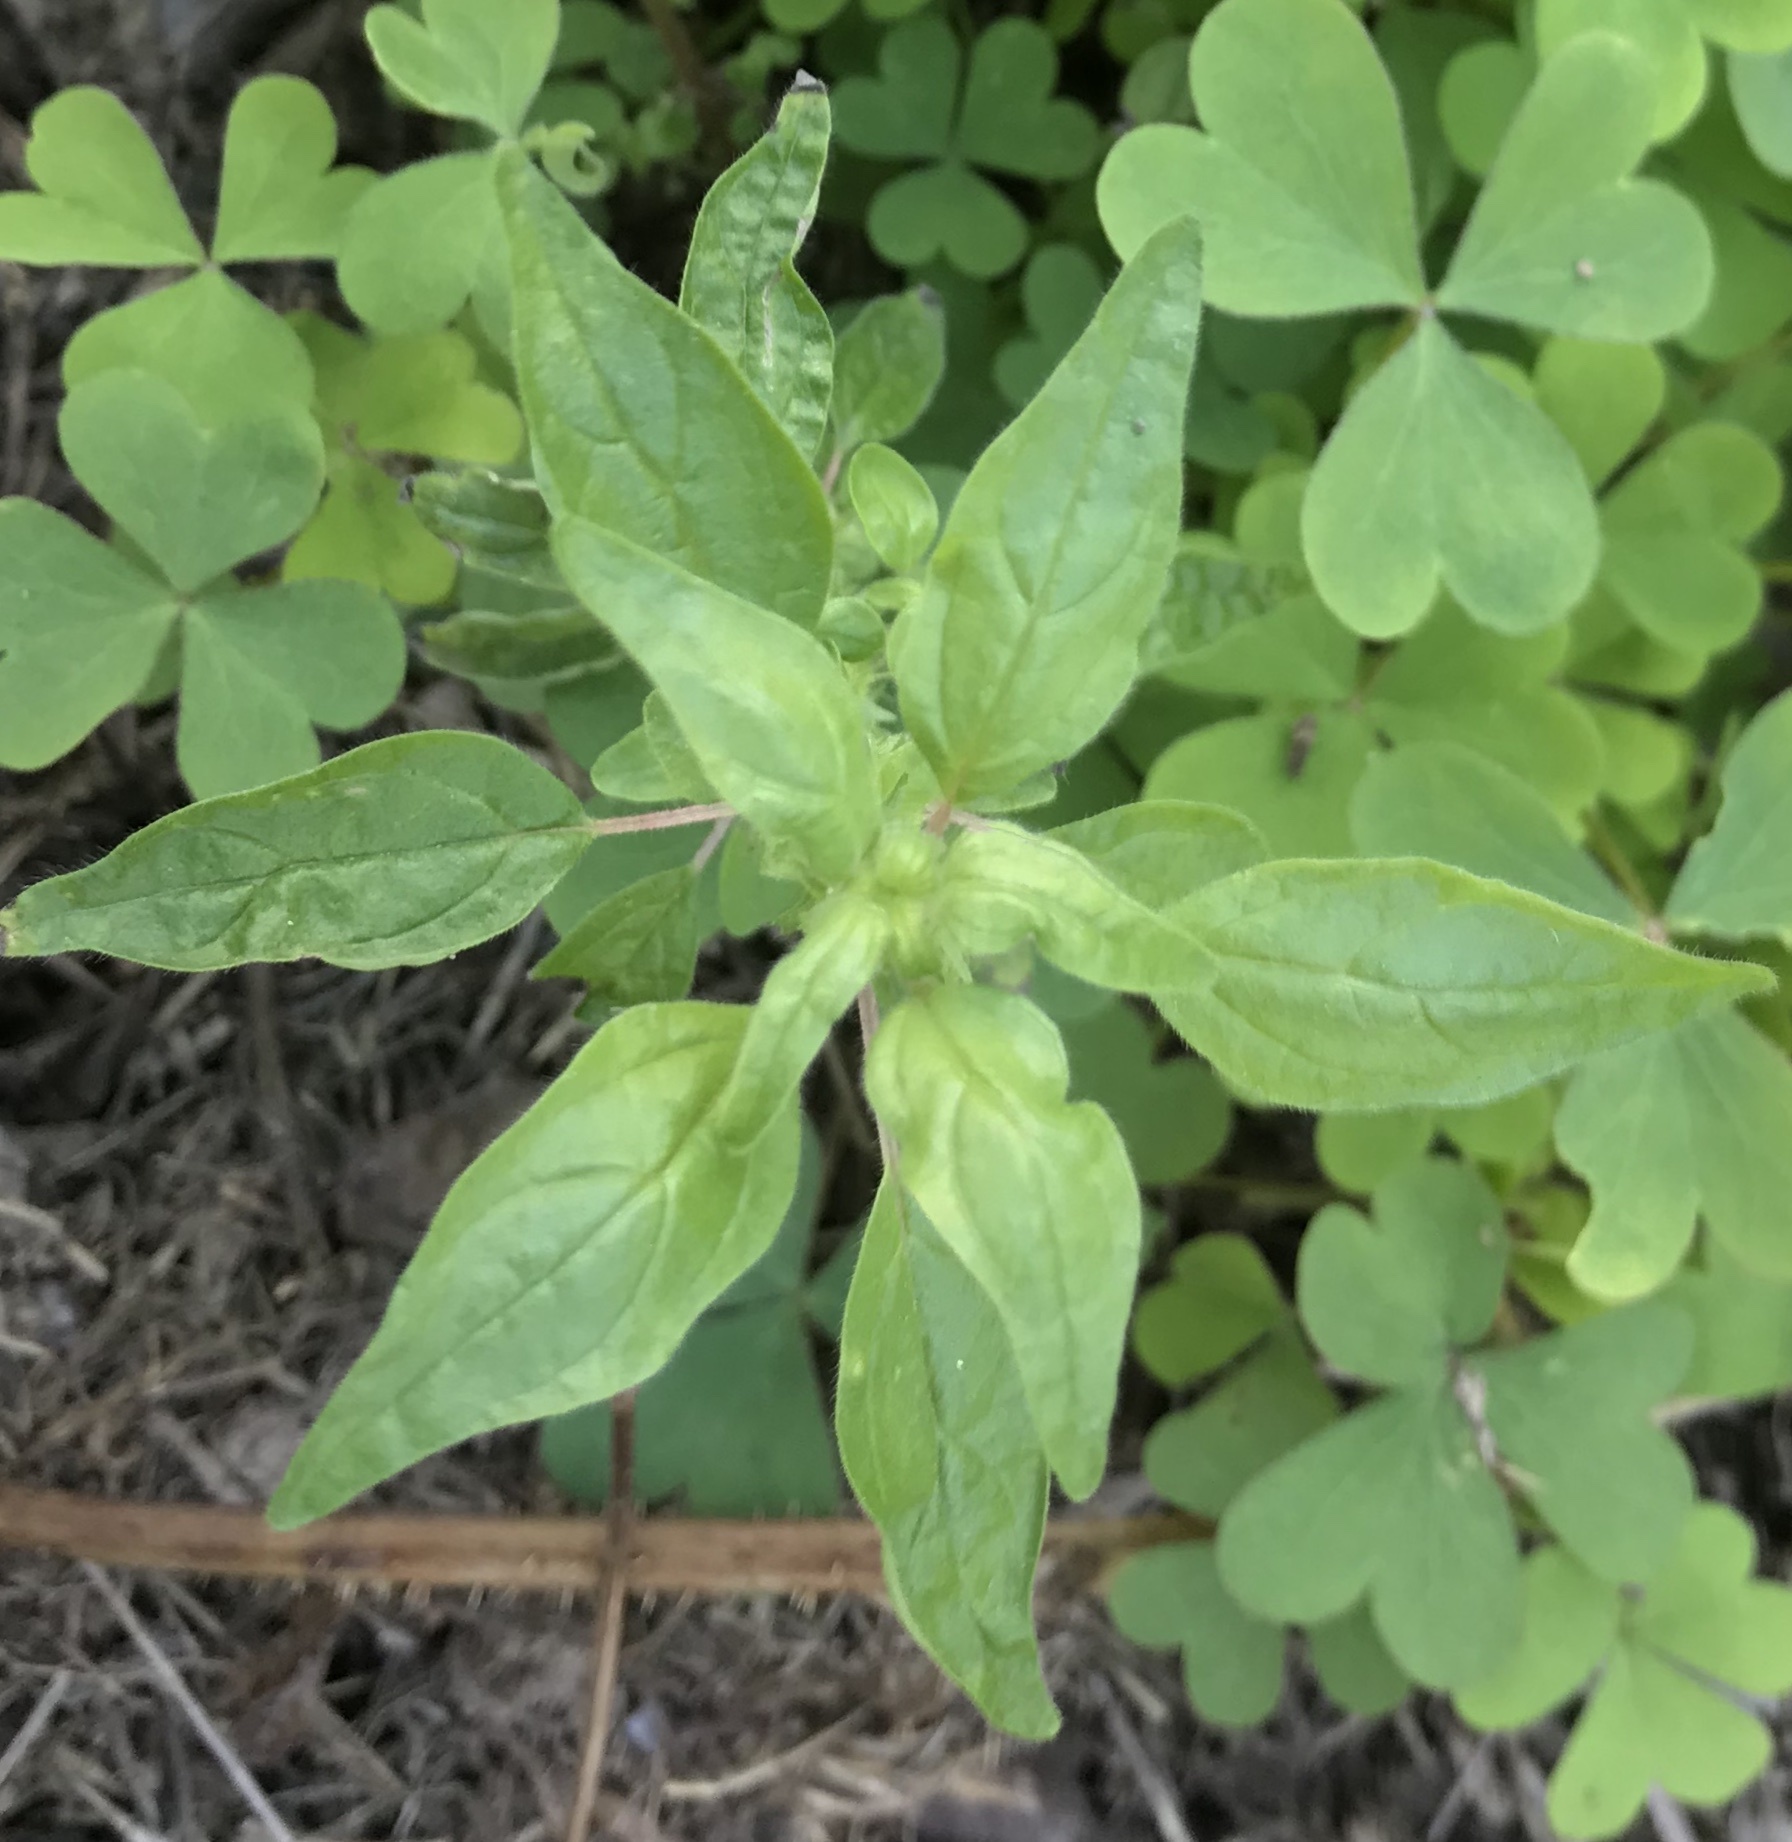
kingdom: Plantae
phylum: Tracheophyta
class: Magnoliopsida
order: Rosales
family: Urticaceae
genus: Parietaria
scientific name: Parietaria pensylvanica
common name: Pennsylvania pellitory
